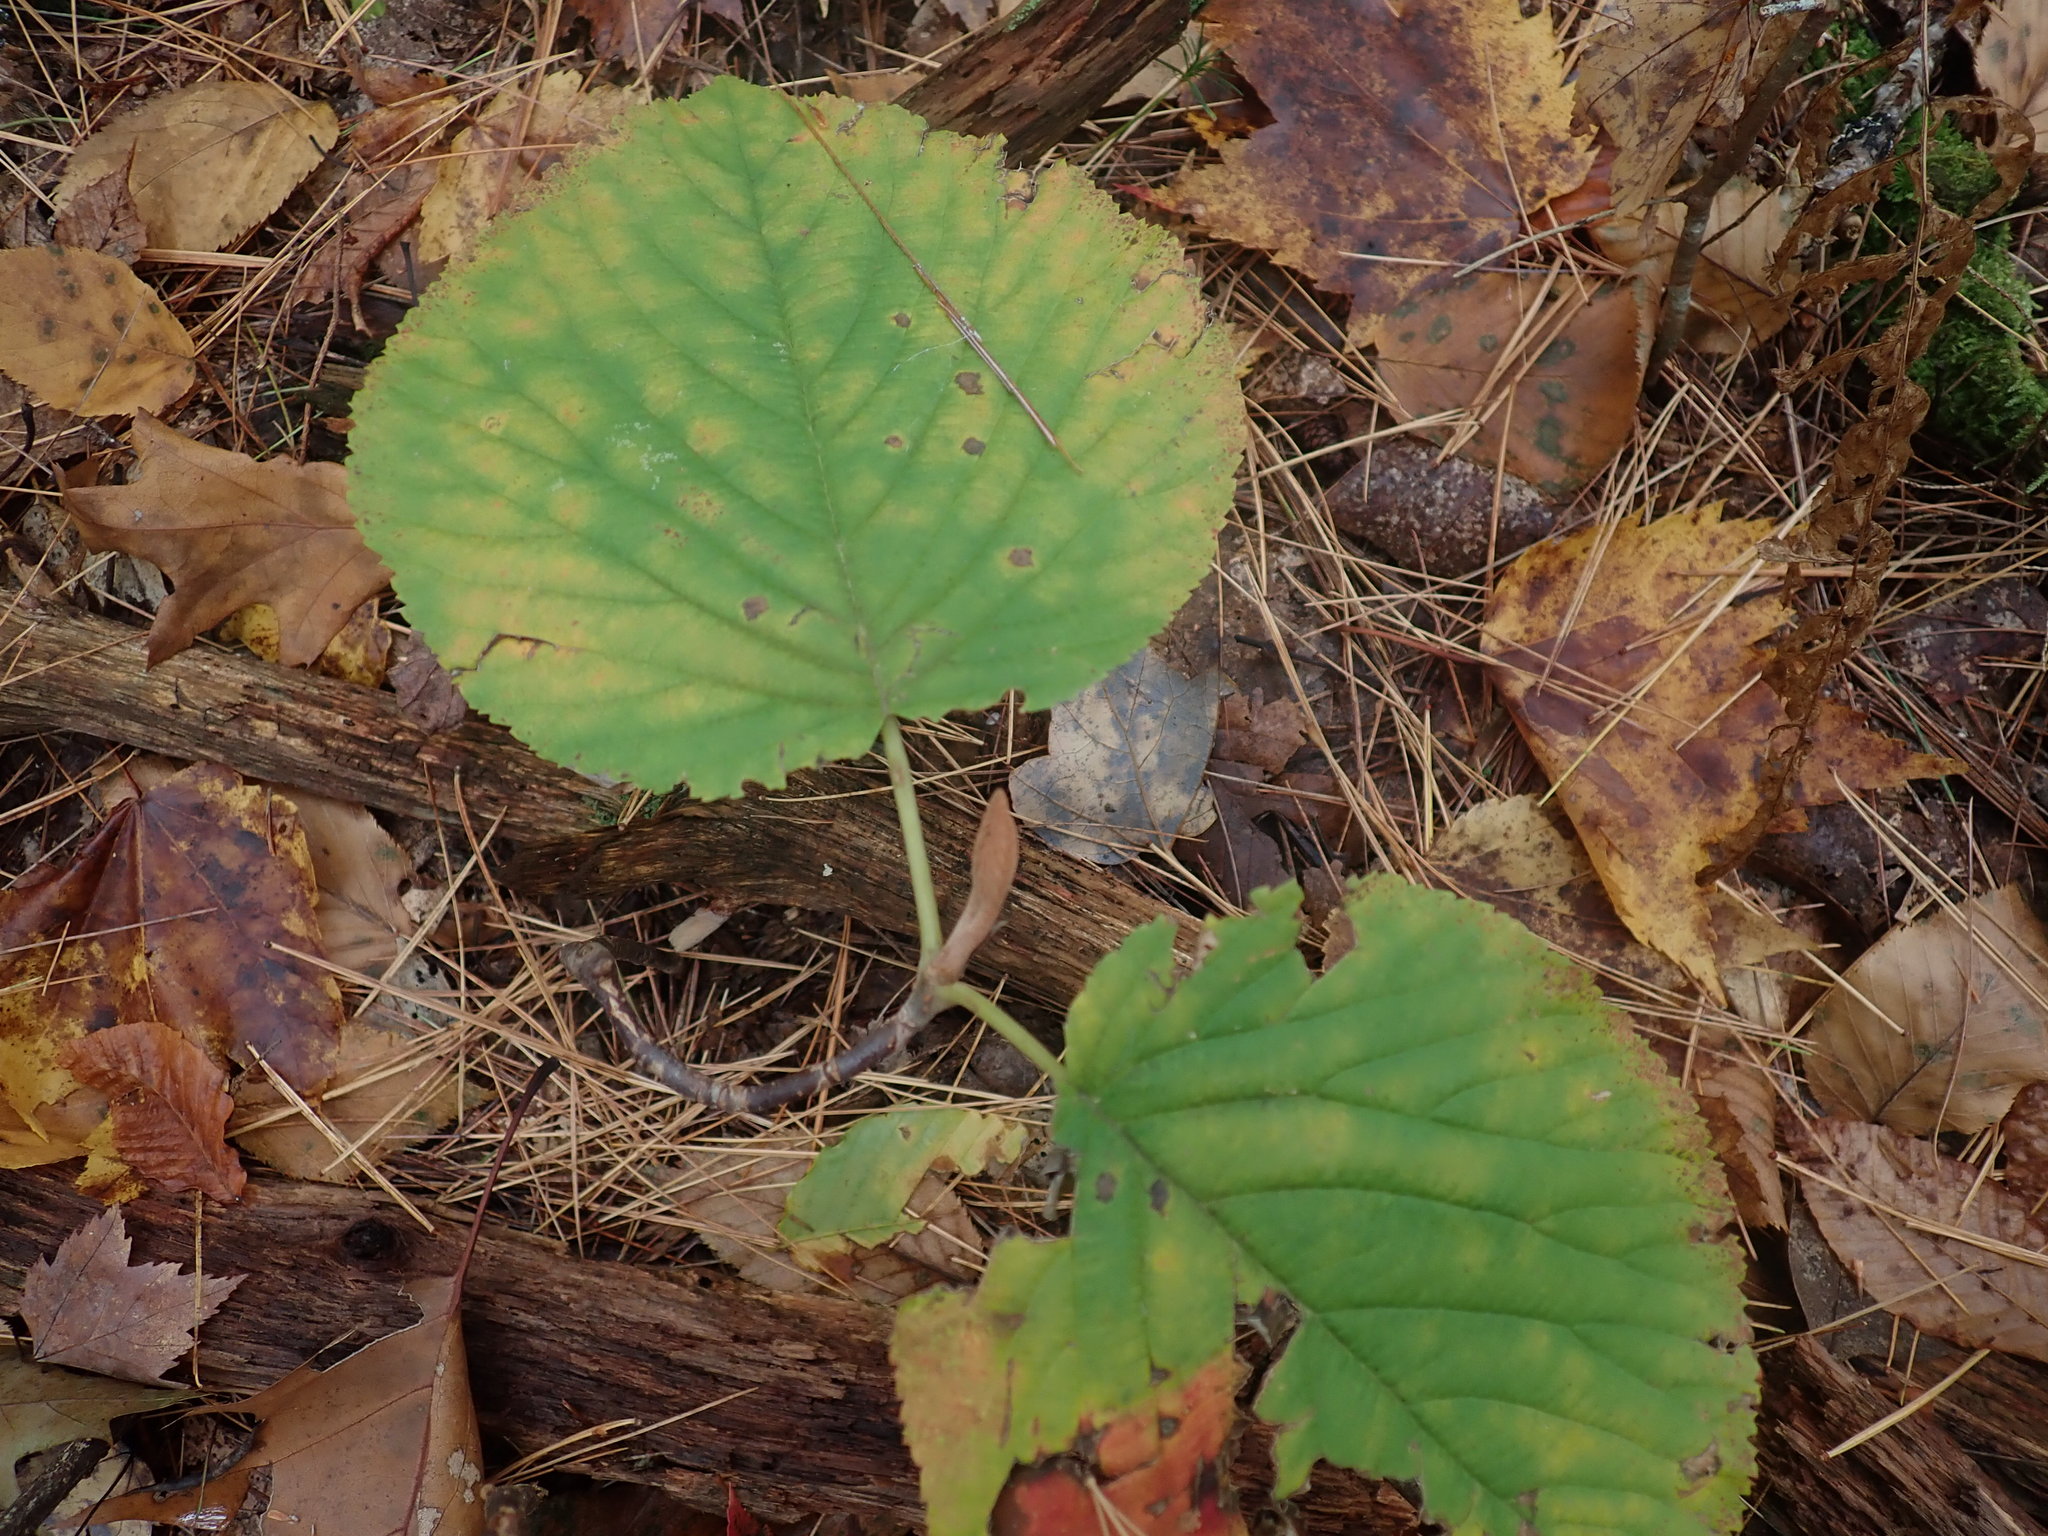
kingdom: Plantae
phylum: Tracheophyta
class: Magnoliopsida
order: Dipsacales
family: Viburnaceae
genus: Viburnum
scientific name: Viburnum lantanoides
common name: Hobblebush
